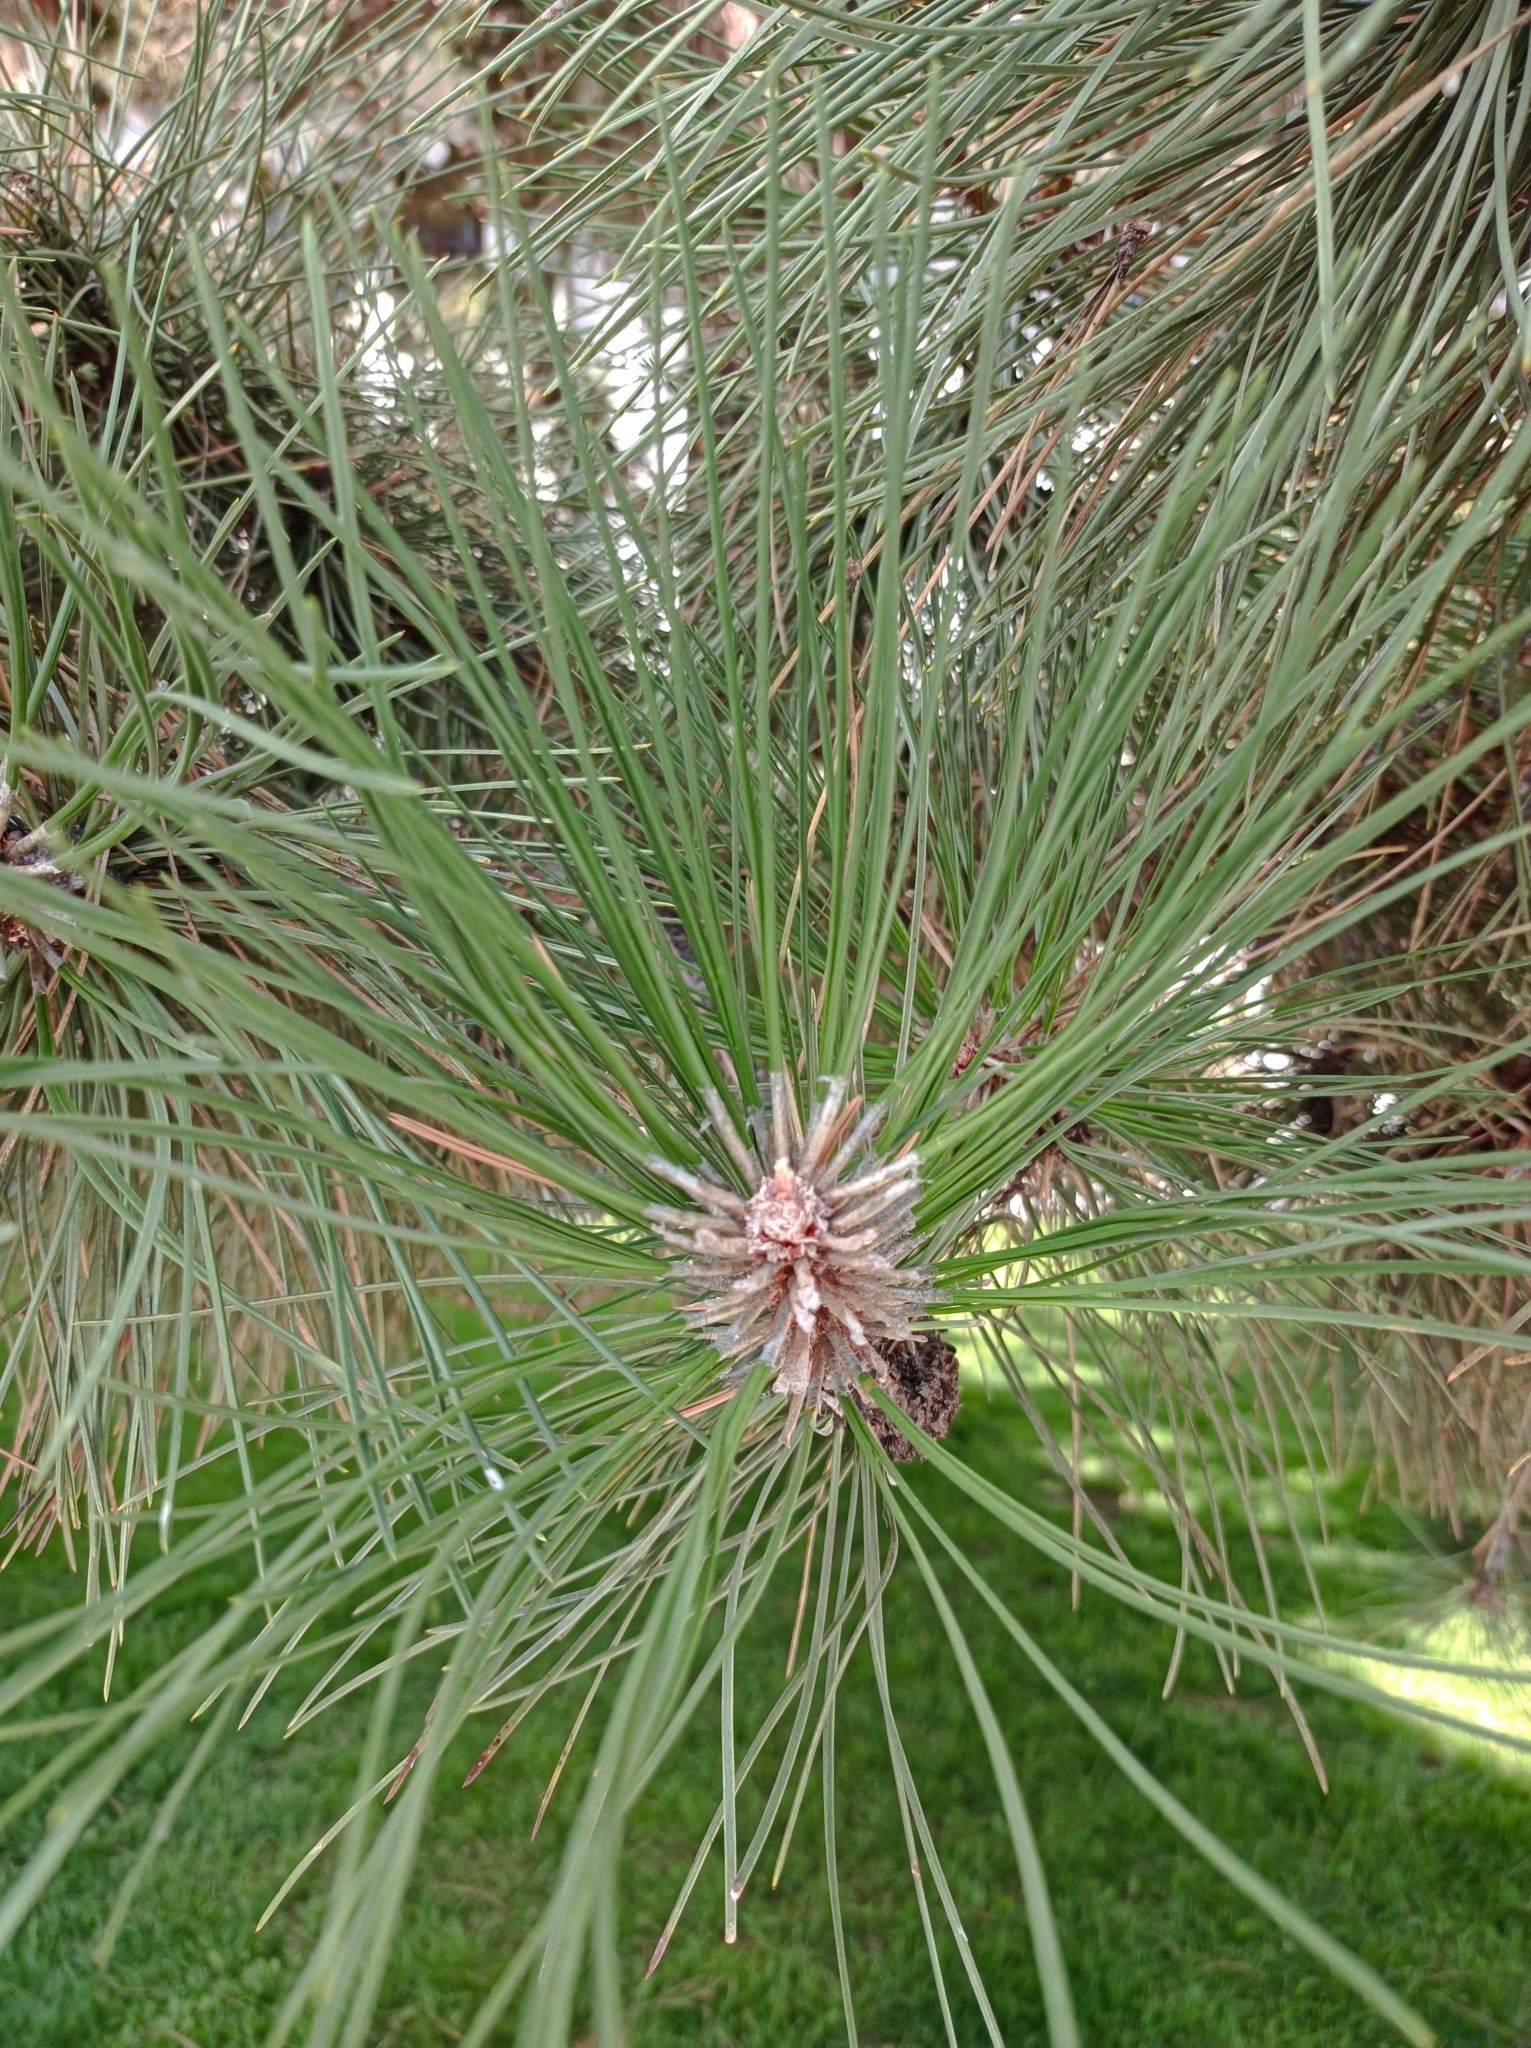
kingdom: Plantae
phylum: Tracheophyta
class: Pinopsida
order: Pinales
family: Pinaceae
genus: Pinus
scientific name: Pinus nigra
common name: Austrian pine
